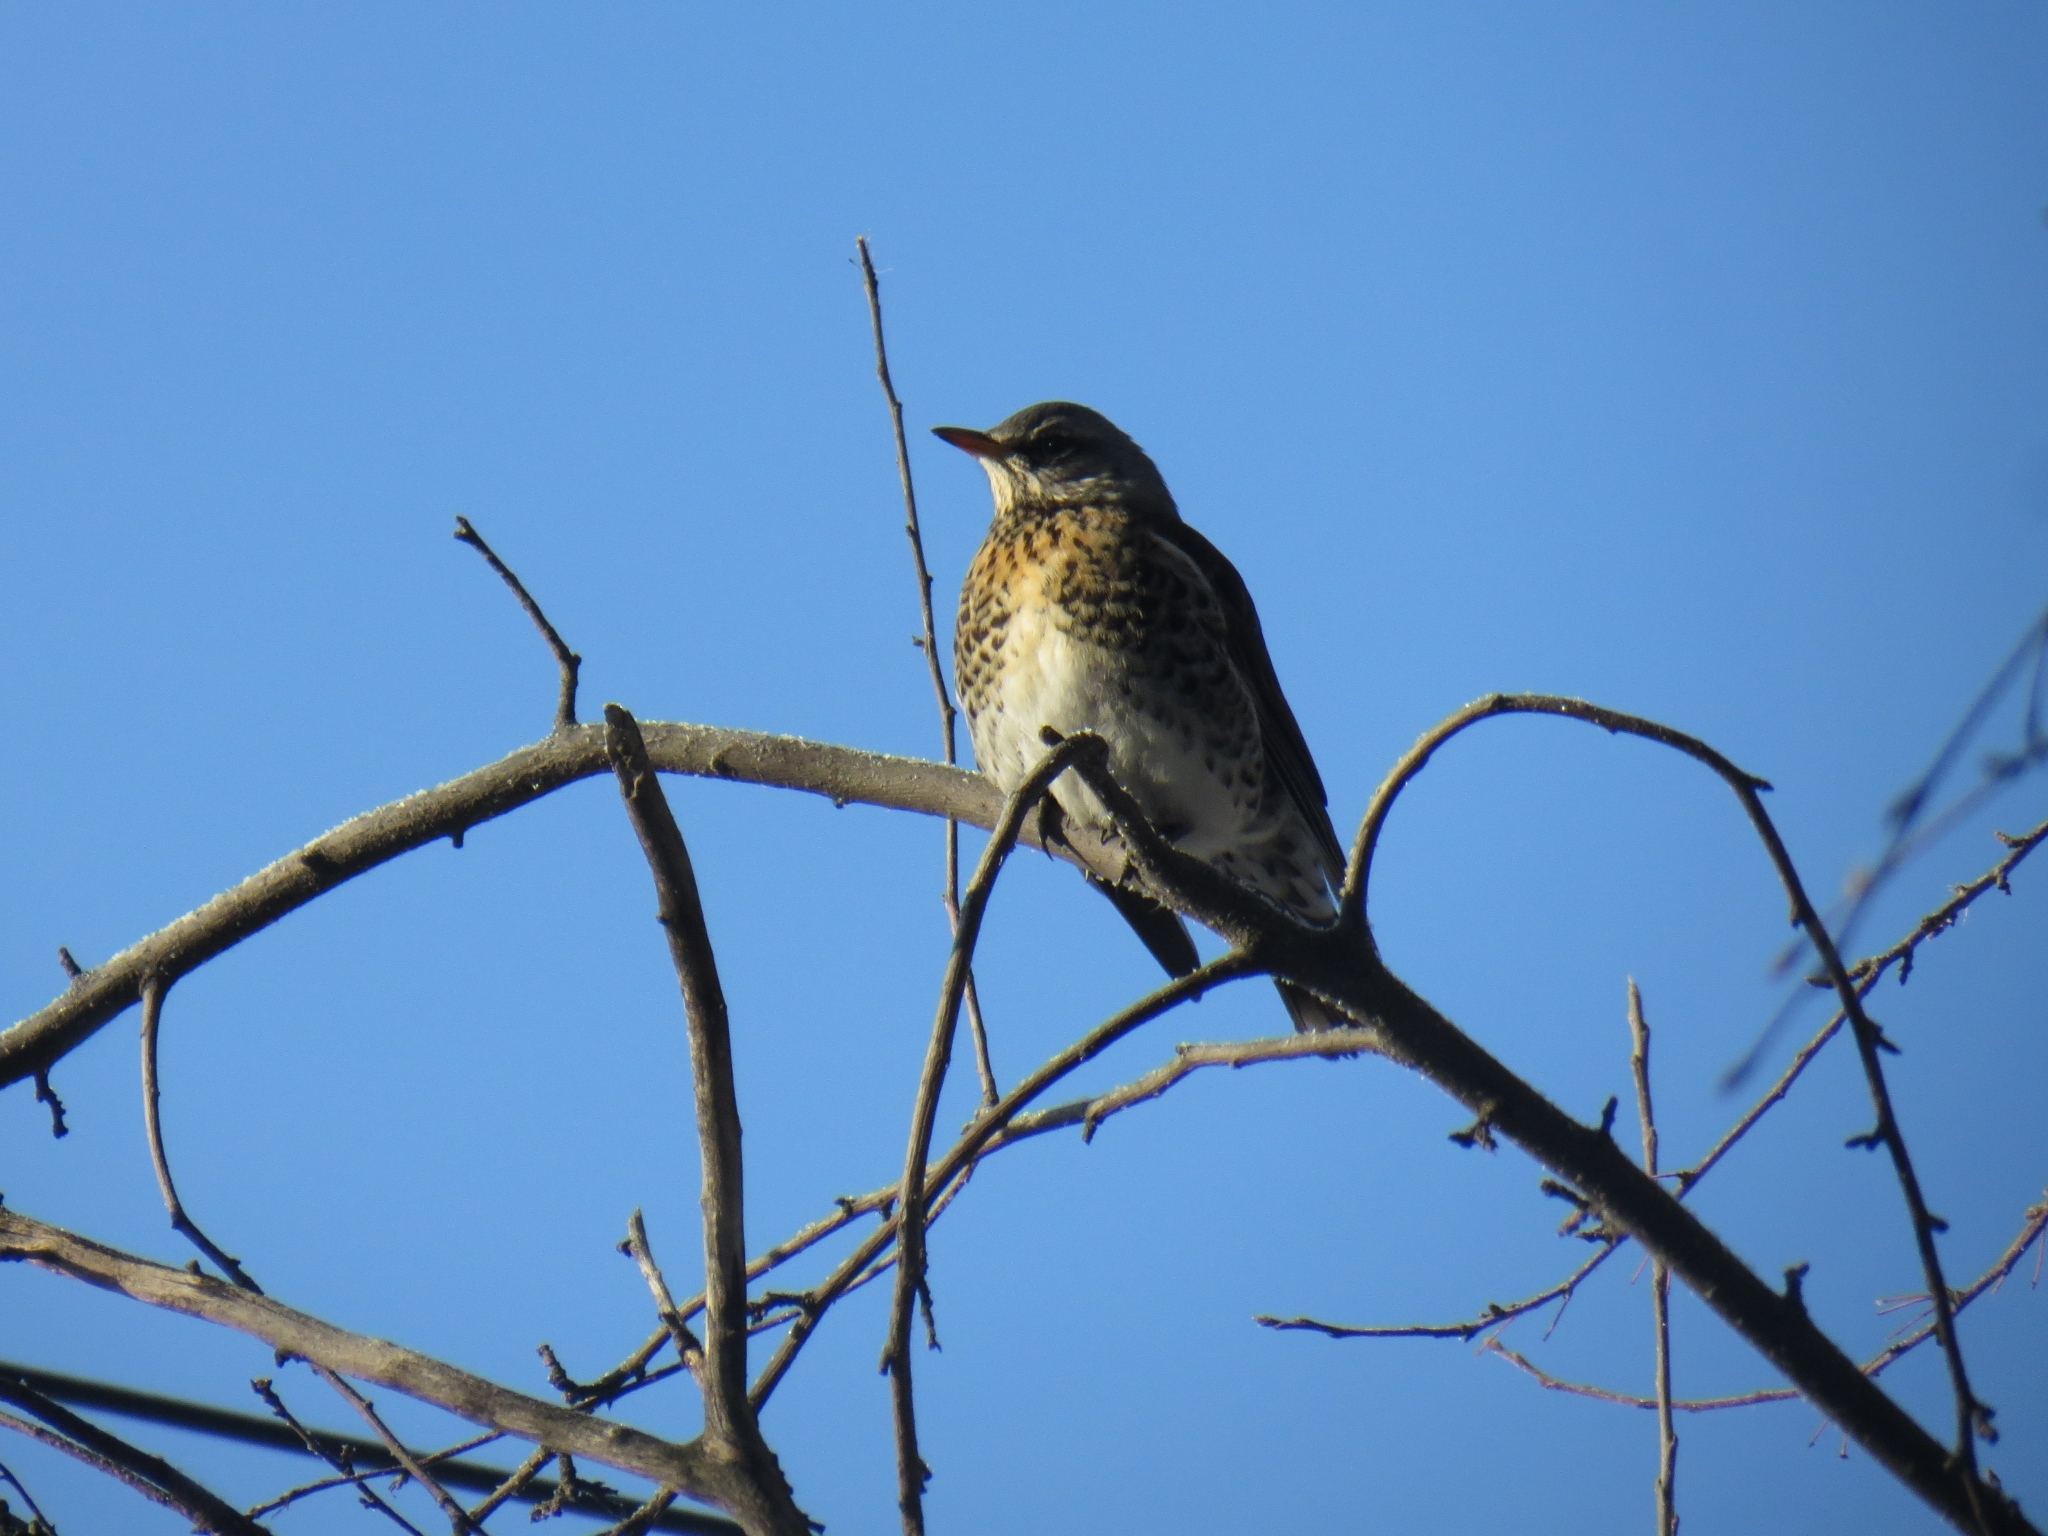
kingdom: Animalia
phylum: Chordata
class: Aves
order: Passeriformes
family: Turdidae
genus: Turdus
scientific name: Turdus pilaris
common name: Fieldfare
